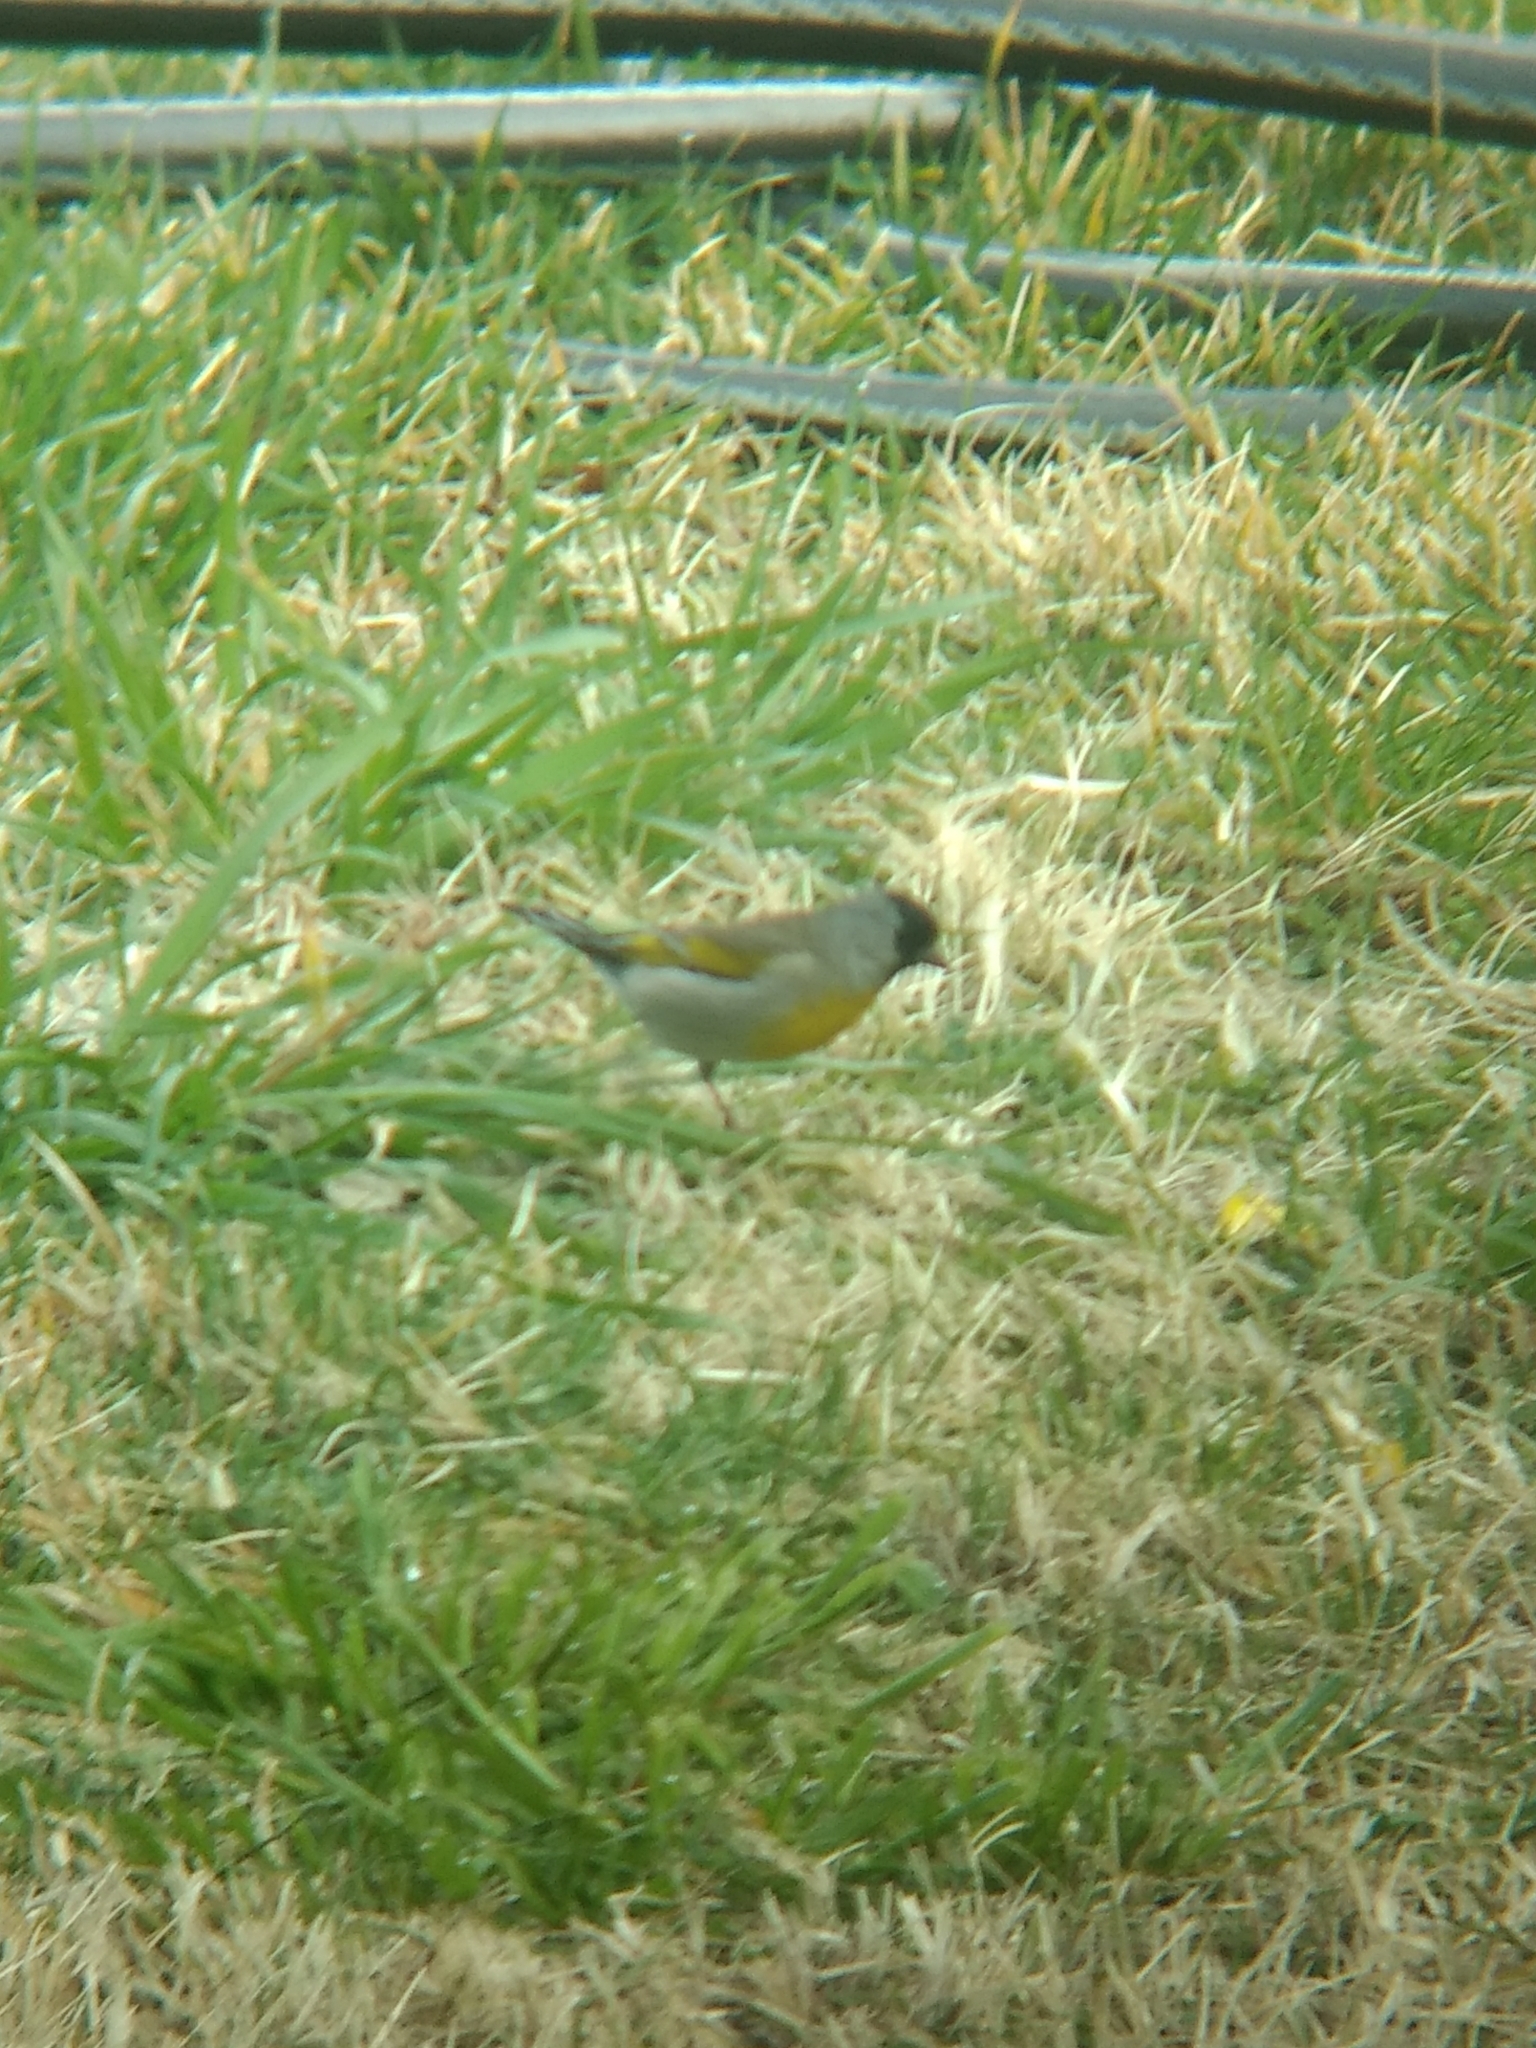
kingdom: Animalia
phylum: Chordata
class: Aves
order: Passeriformes
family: Fringillidae
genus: Spinus
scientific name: Spinus lawrencei
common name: Lawrence's goldfinch
